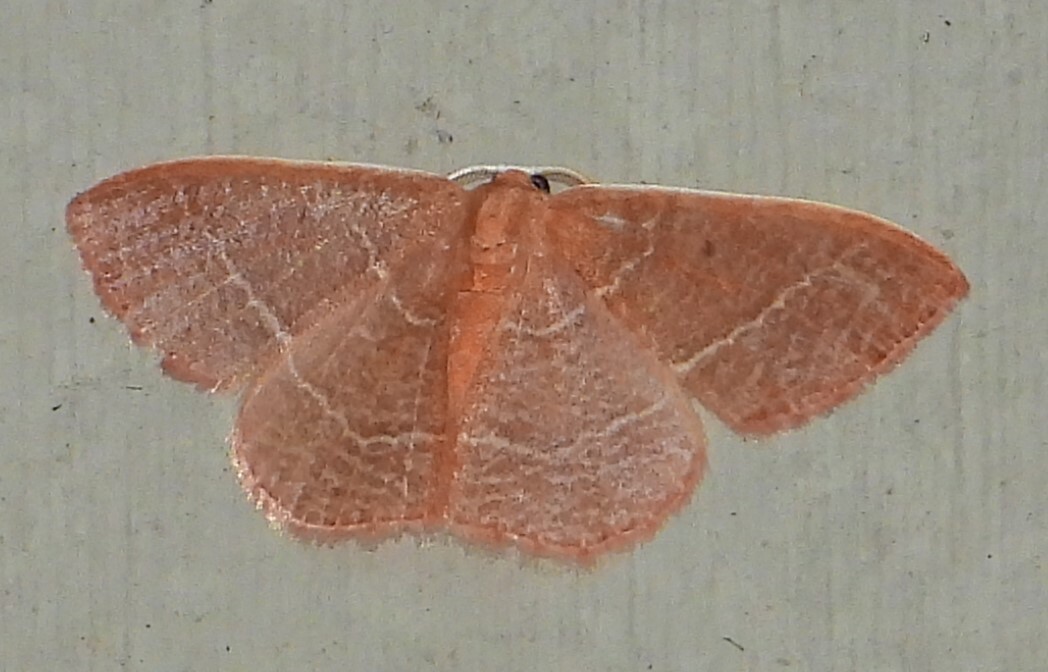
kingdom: Animalia
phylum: Arthropoda
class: Insecta
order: Lepidoptera
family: Geometridae
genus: Nemoria
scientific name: Nemoria bistriaria
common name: Red-fringed emerald
